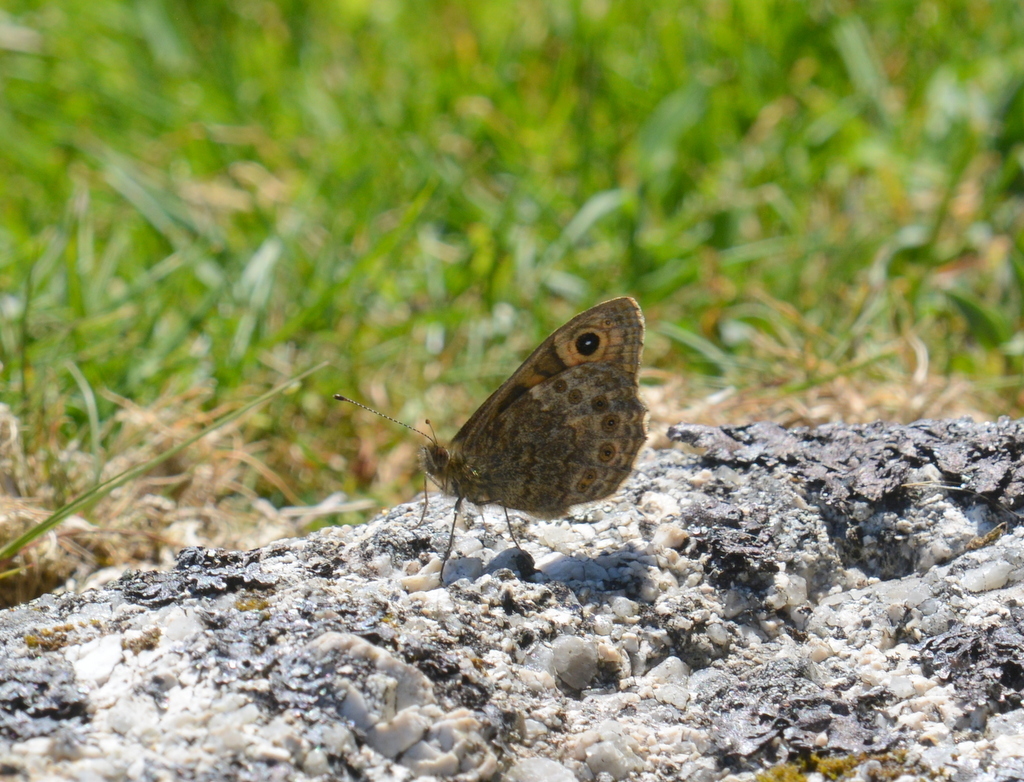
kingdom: Animalia
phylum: Arthropoda
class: Insecta
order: Lepidoptera
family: Nymphalidae
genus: Pararge
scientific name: Pararge Lasiommata megera
